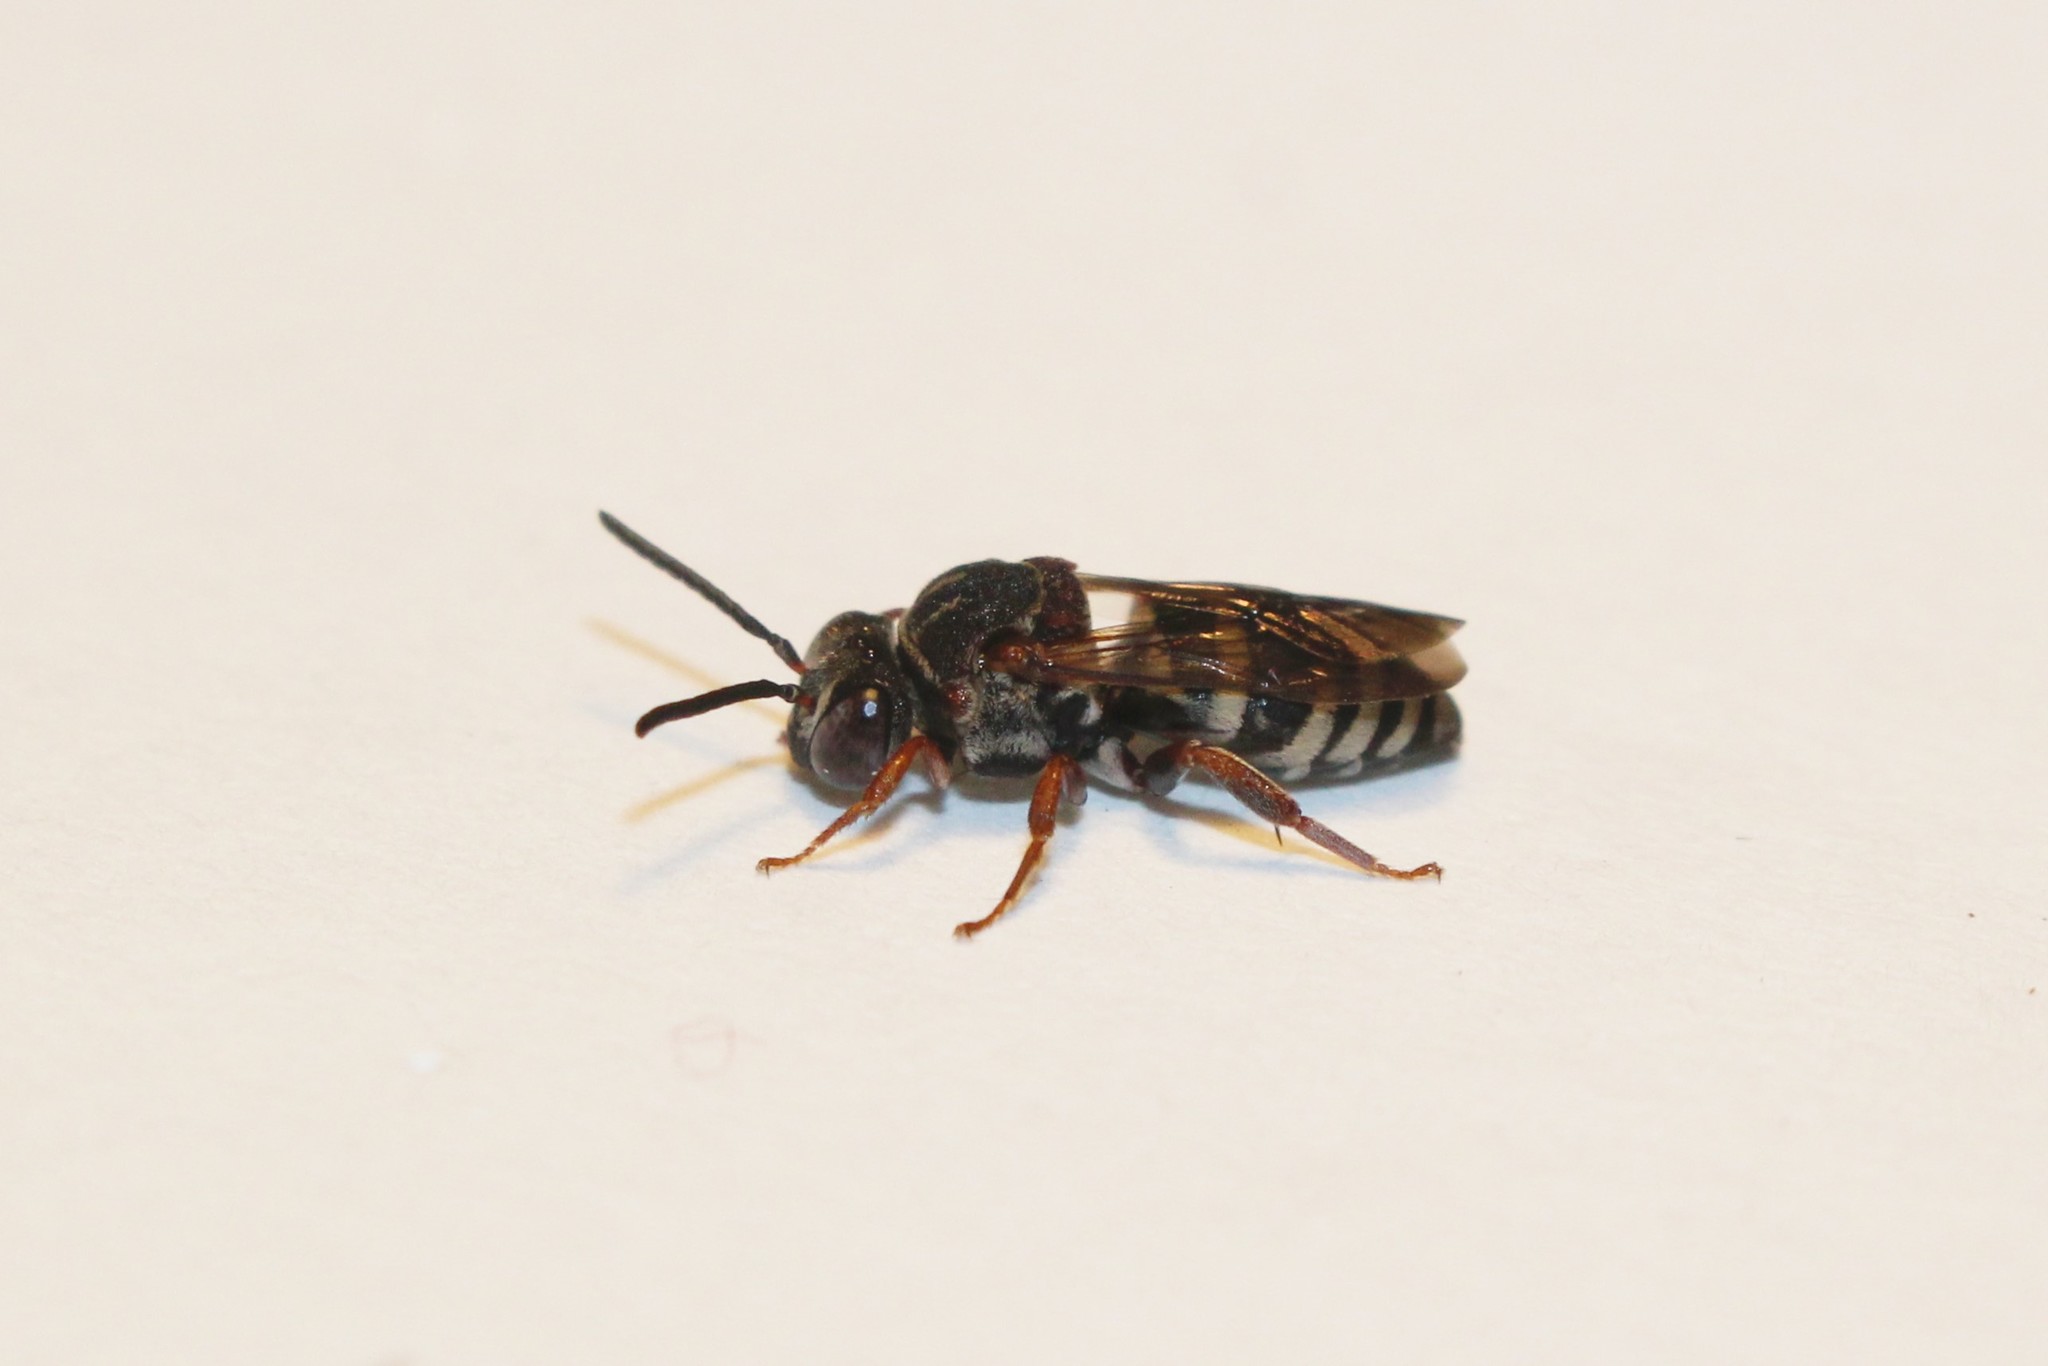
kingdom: Animalia
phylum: Arthropoda
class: Insecta
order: Hymenoptera
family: Apidae
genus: Epeolus
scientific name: Epeolus scutellaris
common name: Notch-backed cellophane-cuckoo bee
